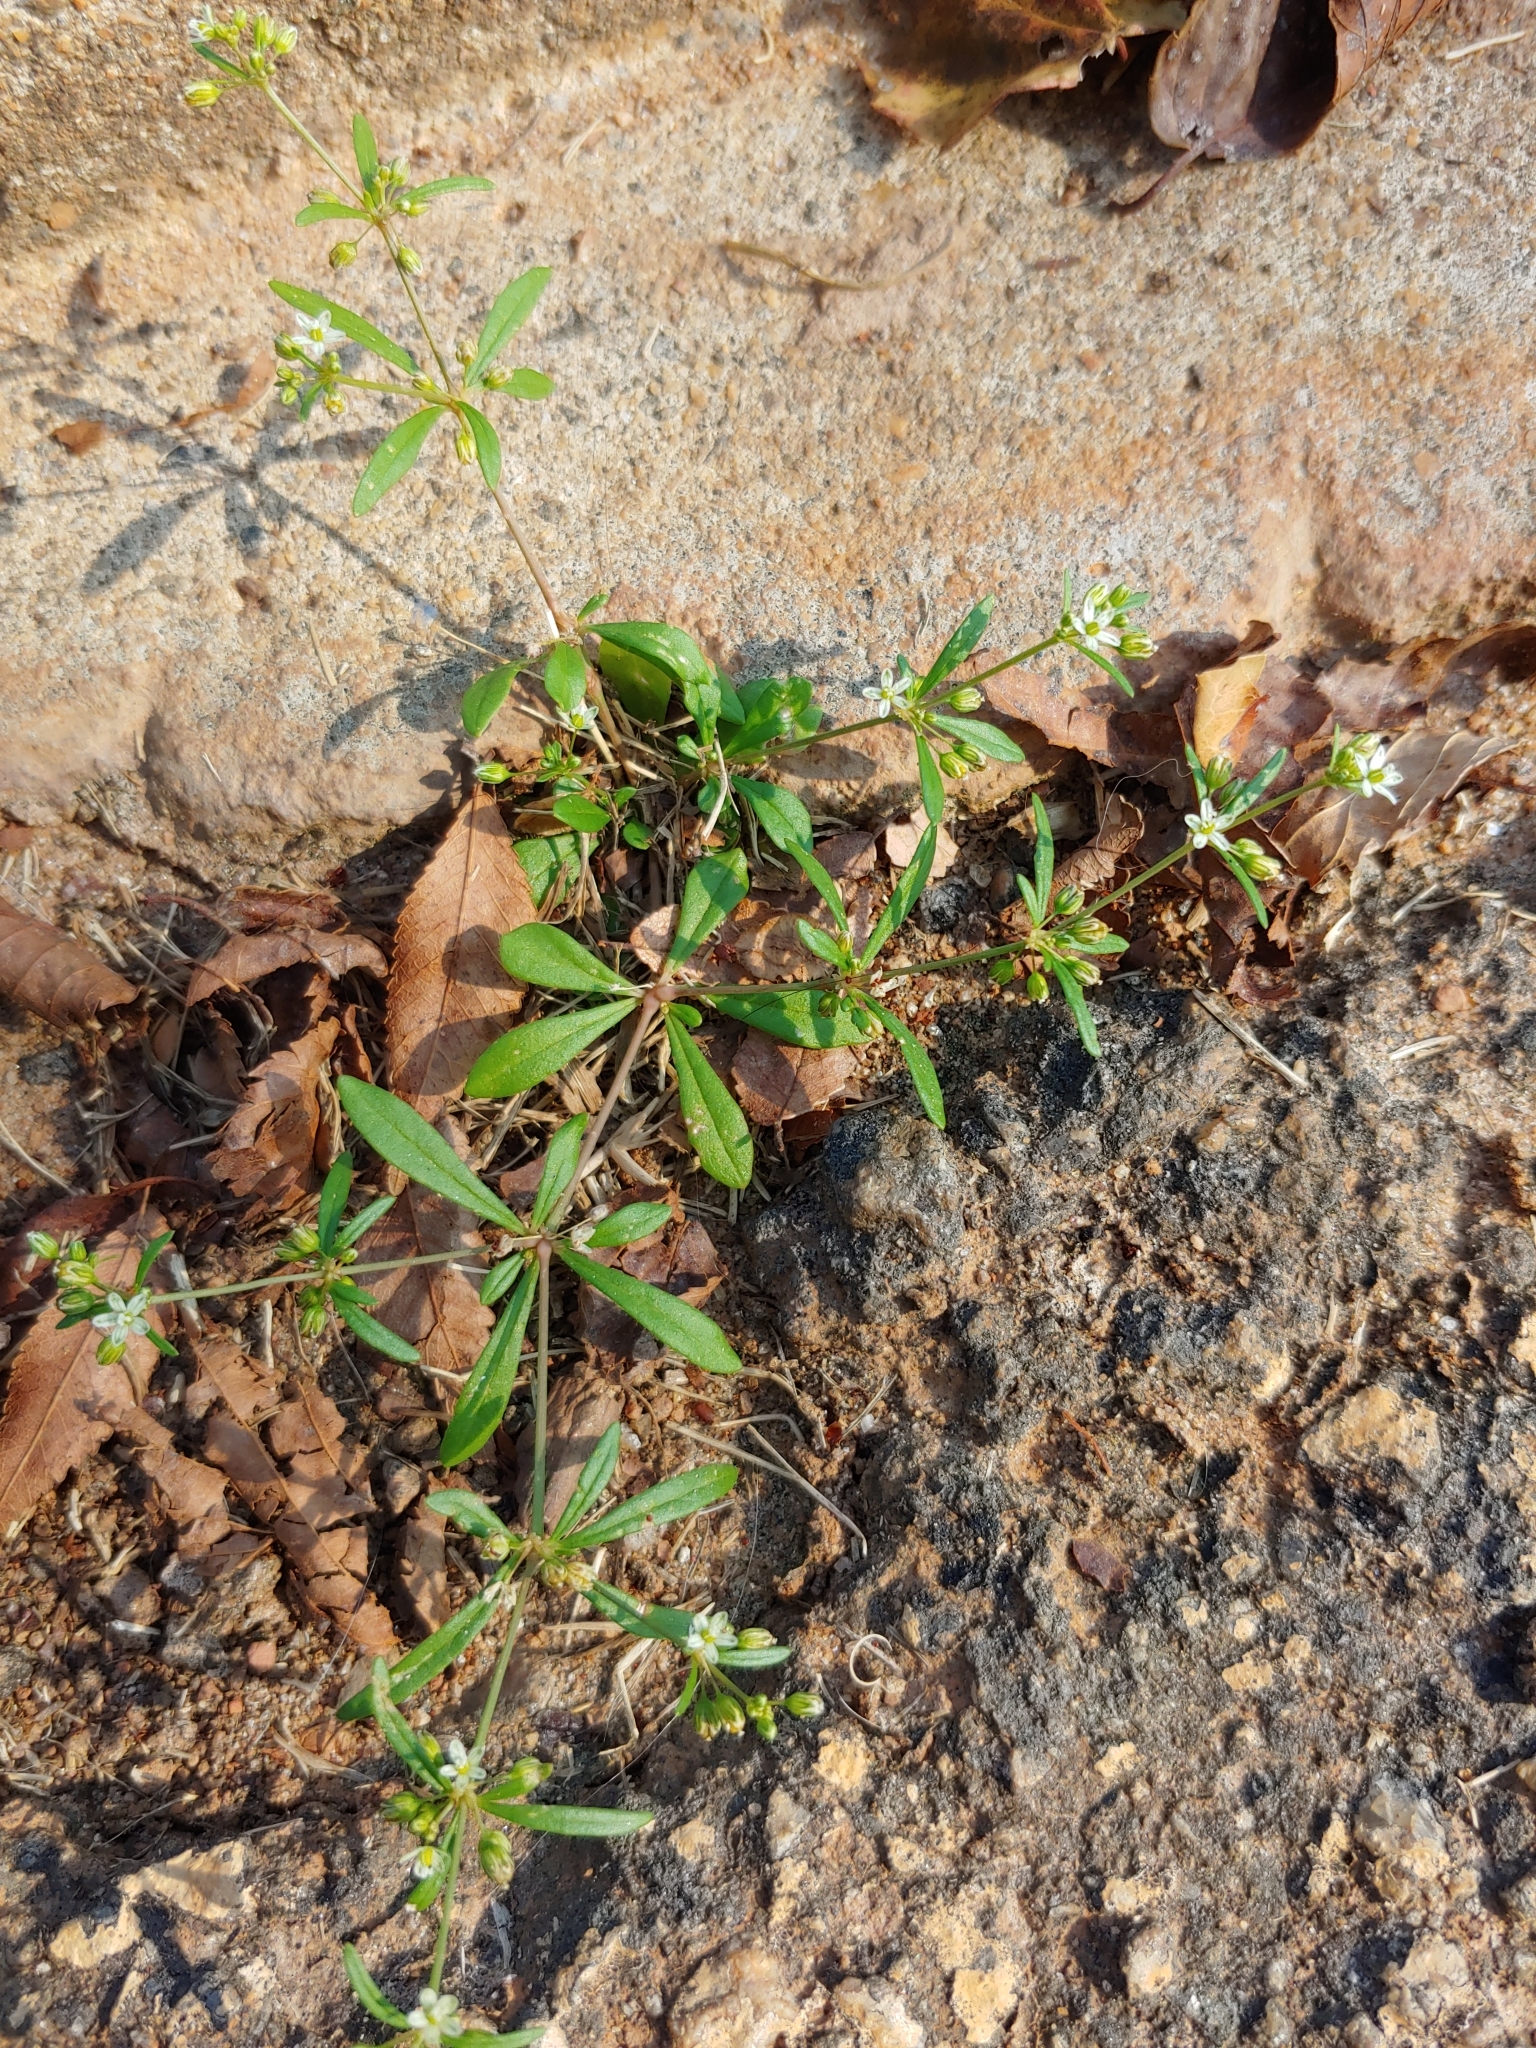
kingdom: Plantae
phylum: Tracheophyta
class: Magnoliopsida
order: Caryophyllales
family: Molluginaceae
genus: Mollugo
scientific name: Mollugo verticillata
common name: Green carpetweed
